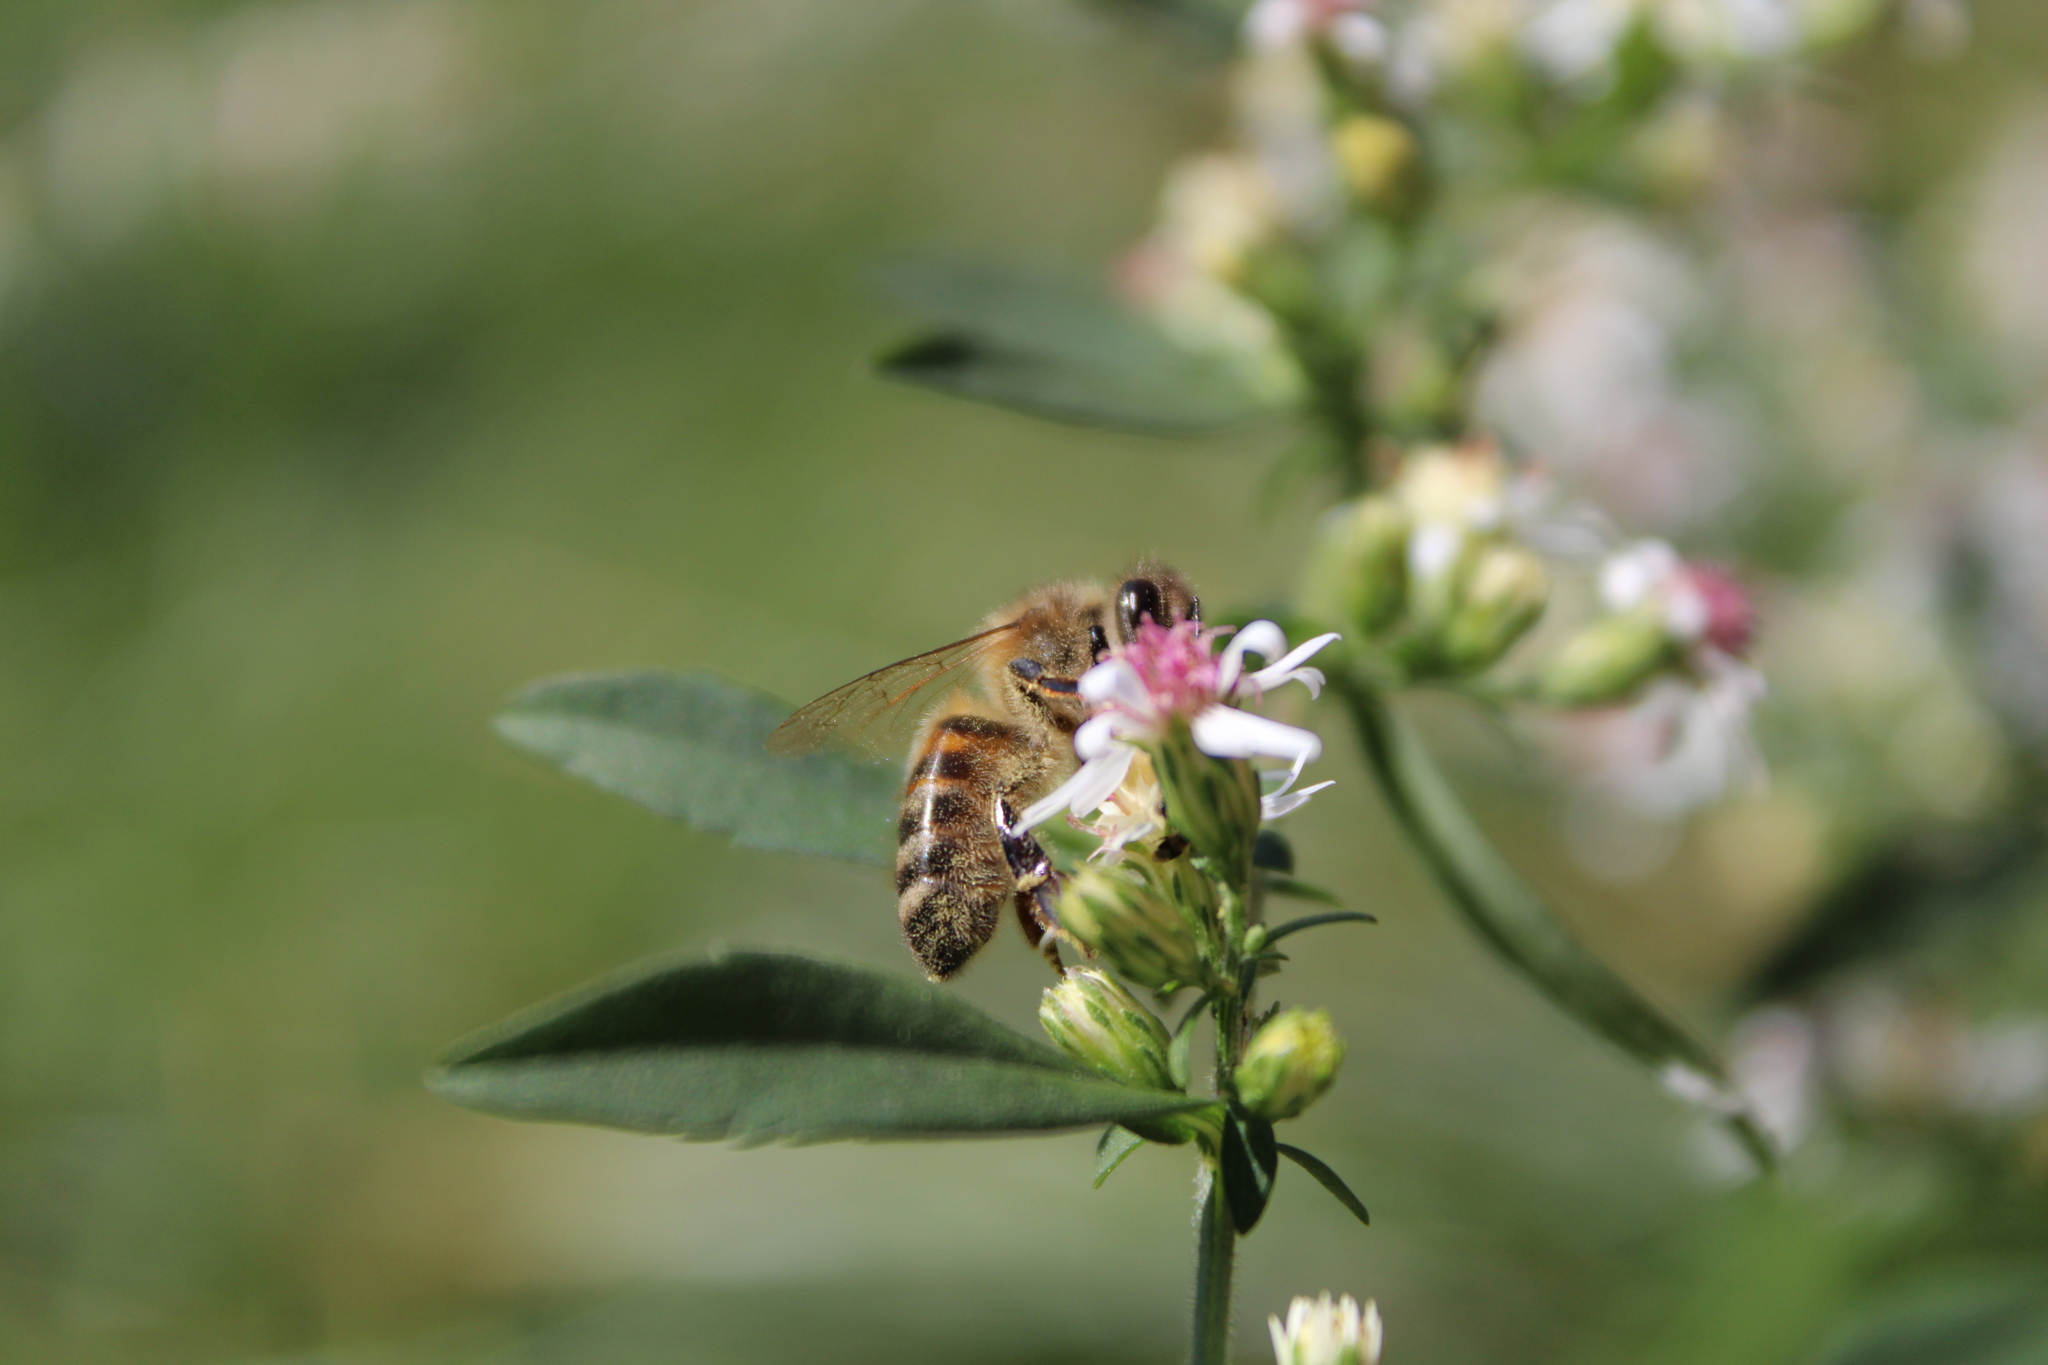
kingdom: Animalia
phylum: Arthropoda
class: Insecta
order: Hymenoptera
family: Apidae
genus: Apis
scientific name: Apis mellifera
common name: Honey bee
